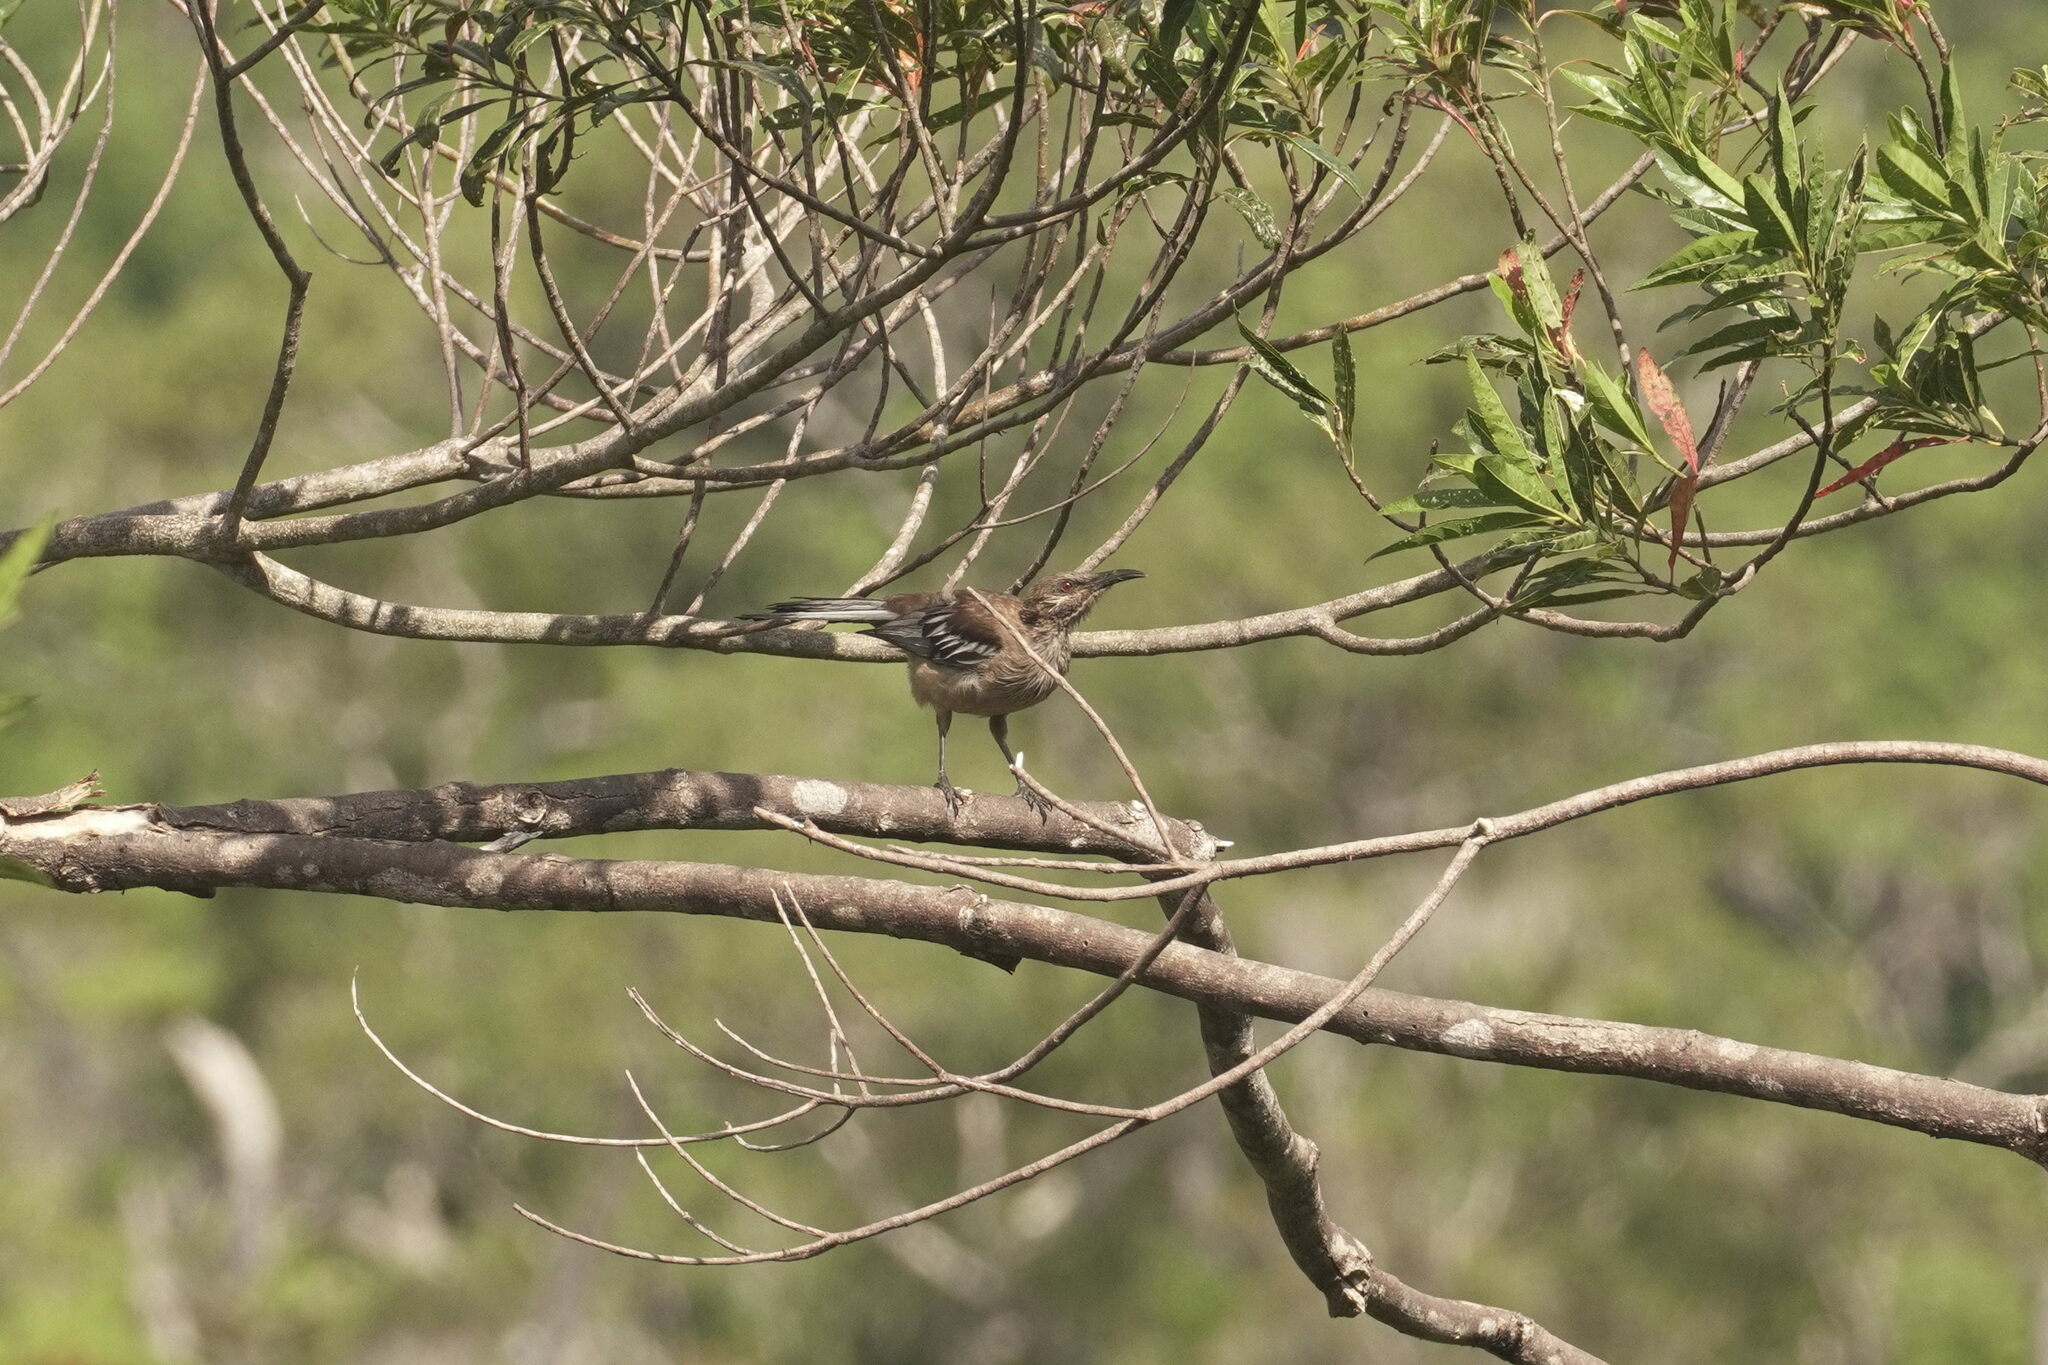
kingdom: Animalia
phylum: Chordata
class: Aves
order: Passeriformes
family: Meliphagidae
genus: Philemon
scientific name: Philemon diemenensis
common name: New caledonian friarbird
